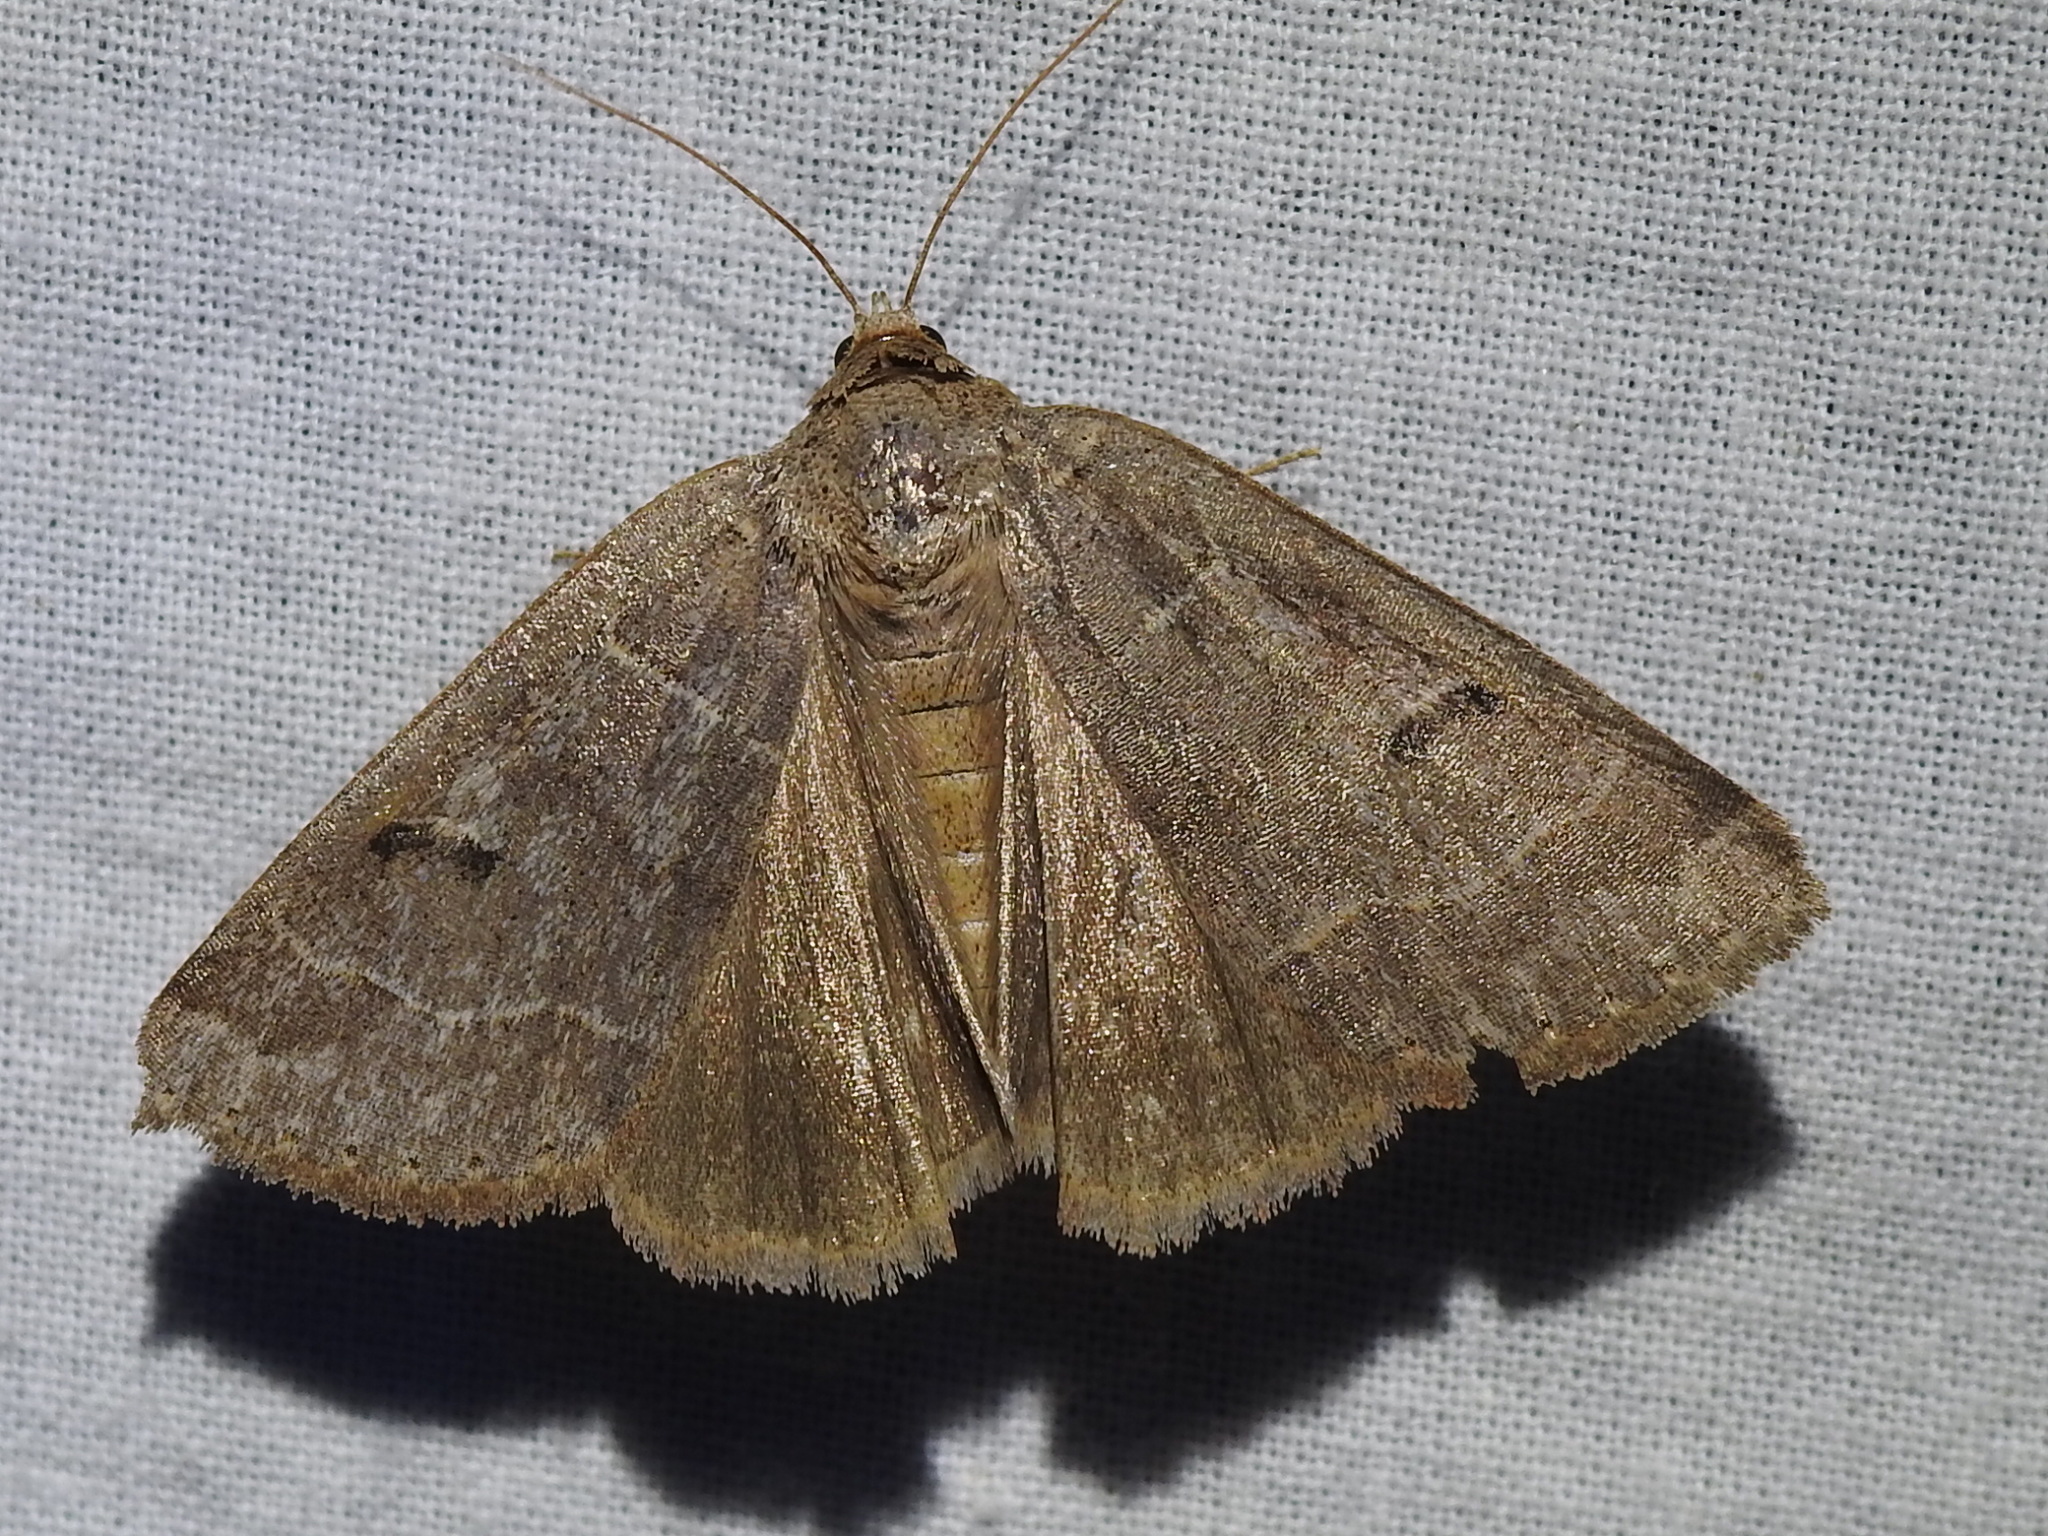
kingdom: Animalia
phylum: Arthropoda
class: Insecta
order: Lepidoptera
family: Erebidae
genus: Phoberia
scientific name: Phoberia atomaris
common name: Common oak moth
